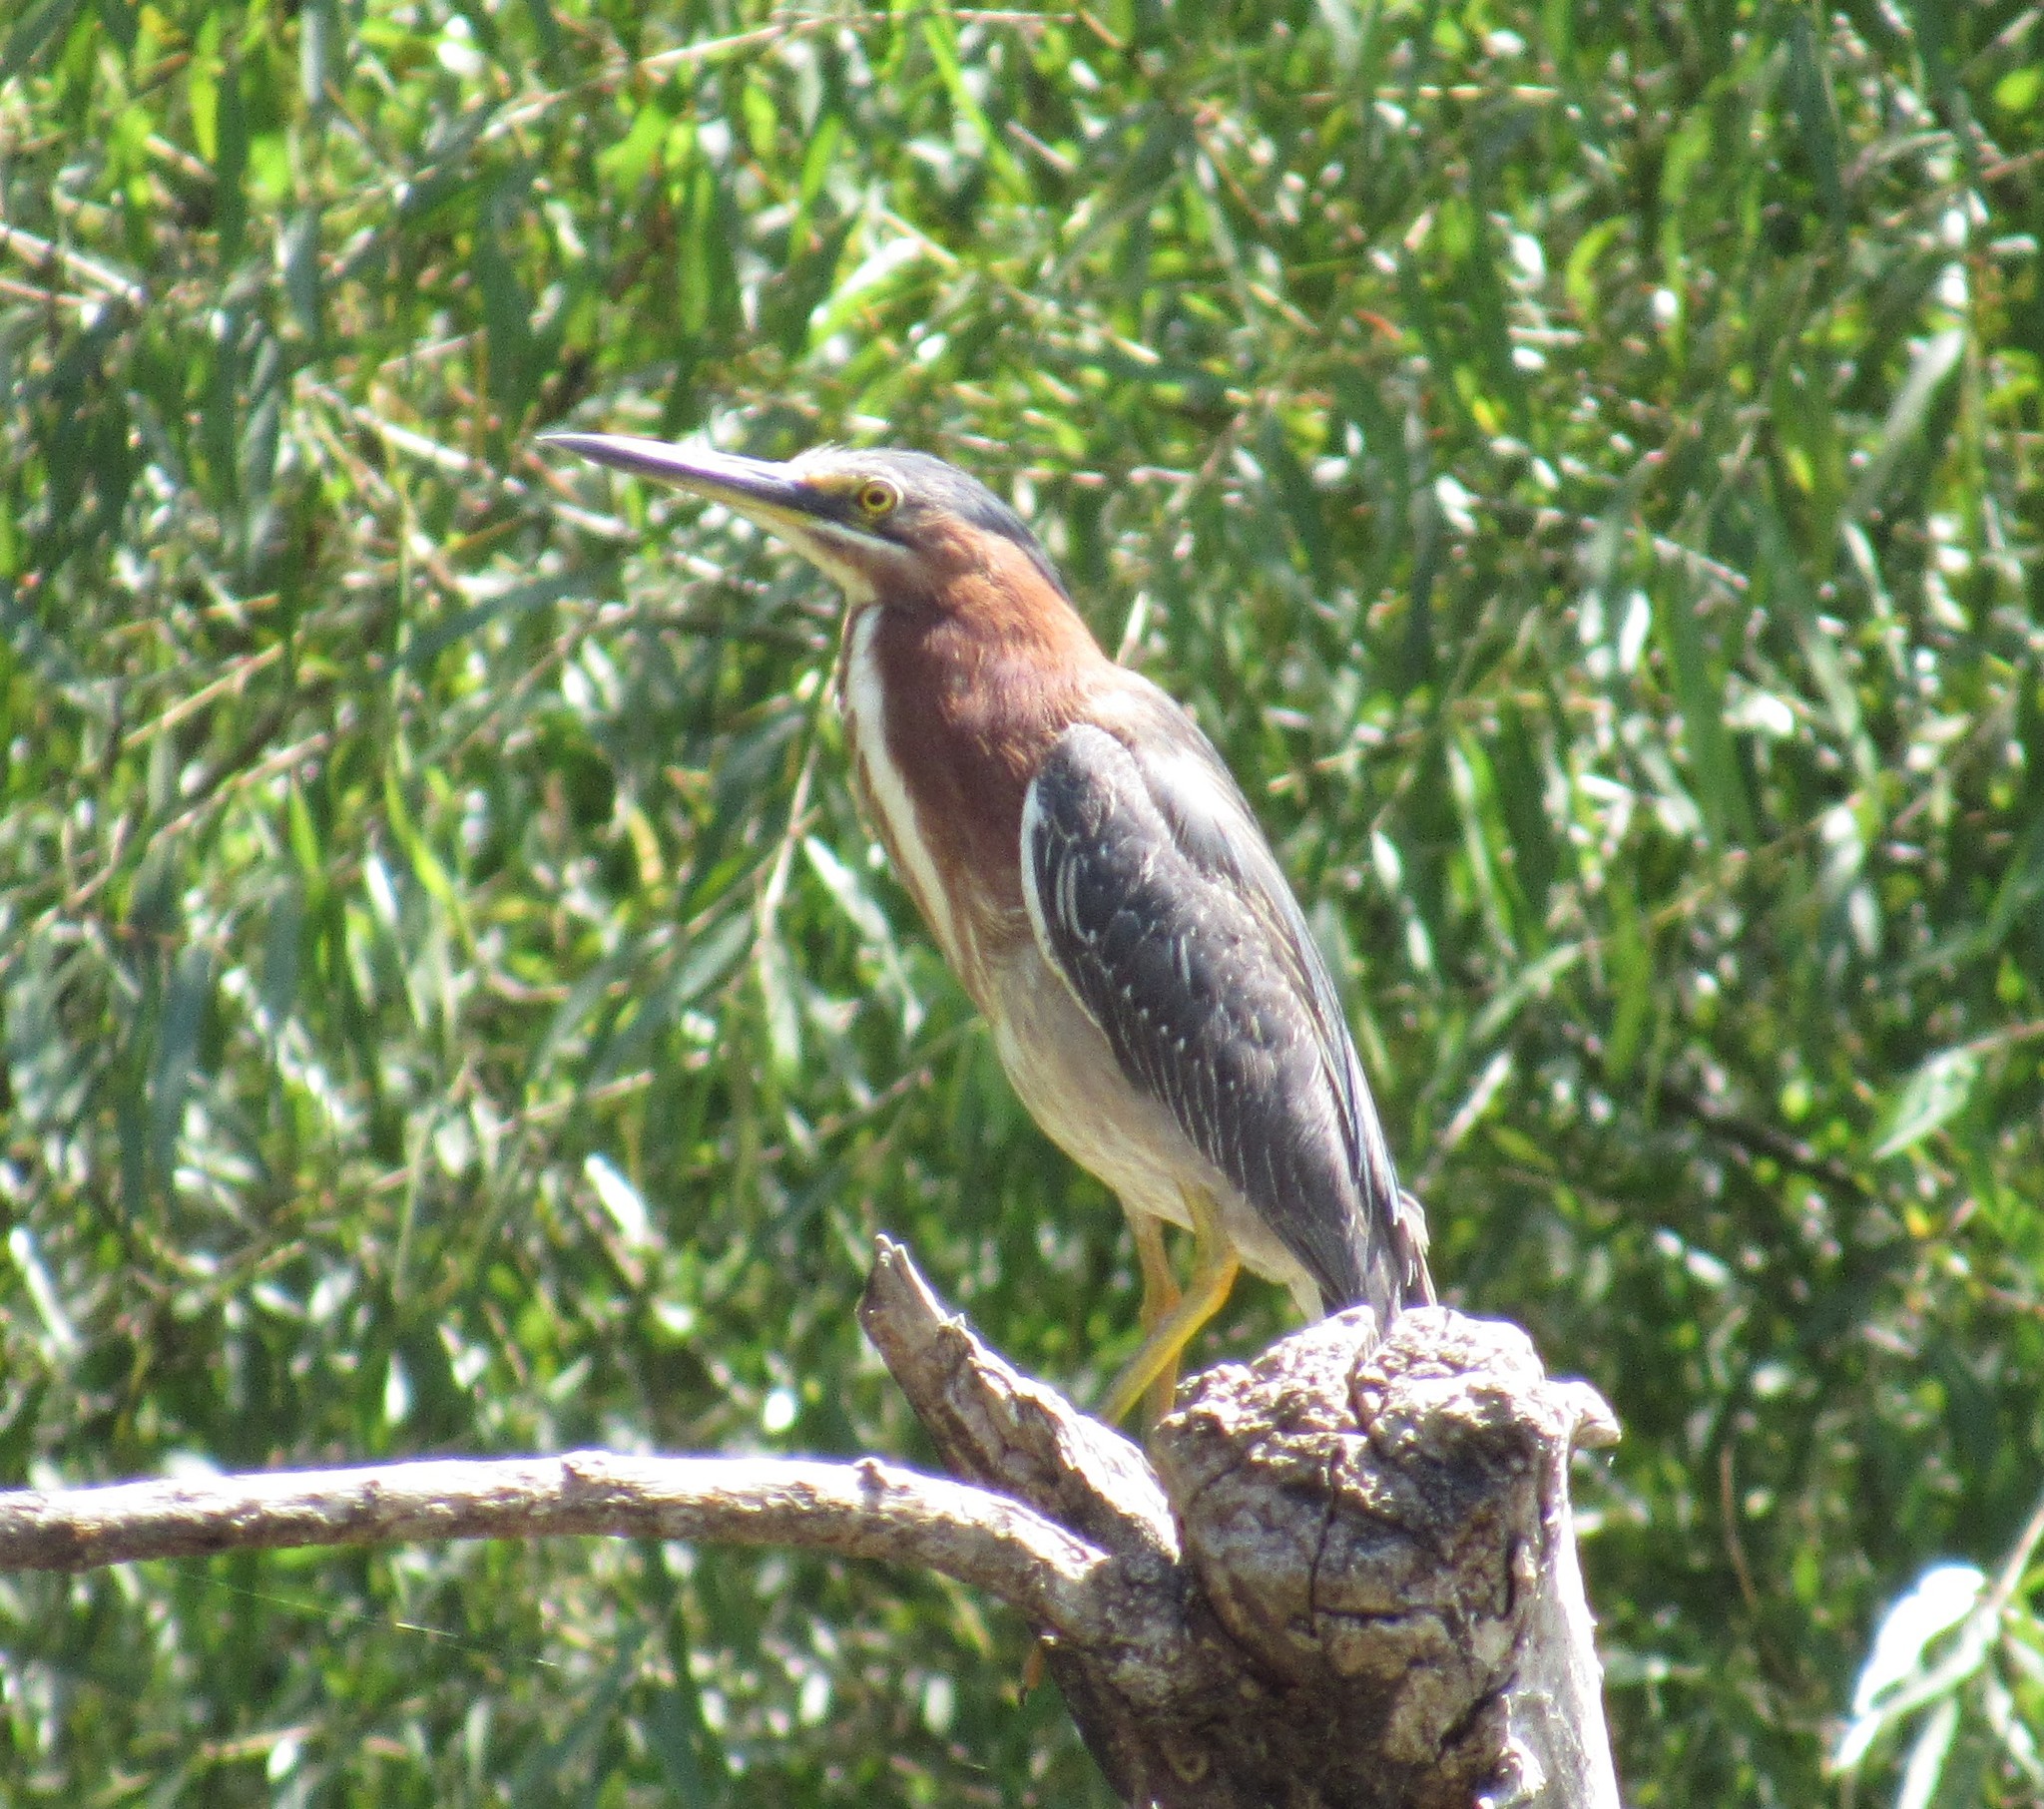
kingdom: Animalia
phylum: Chordata
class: Aves
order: Pelecaniformes
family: Ardeidae
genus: Butorides
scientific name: Butorides virescens
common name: Green heron
